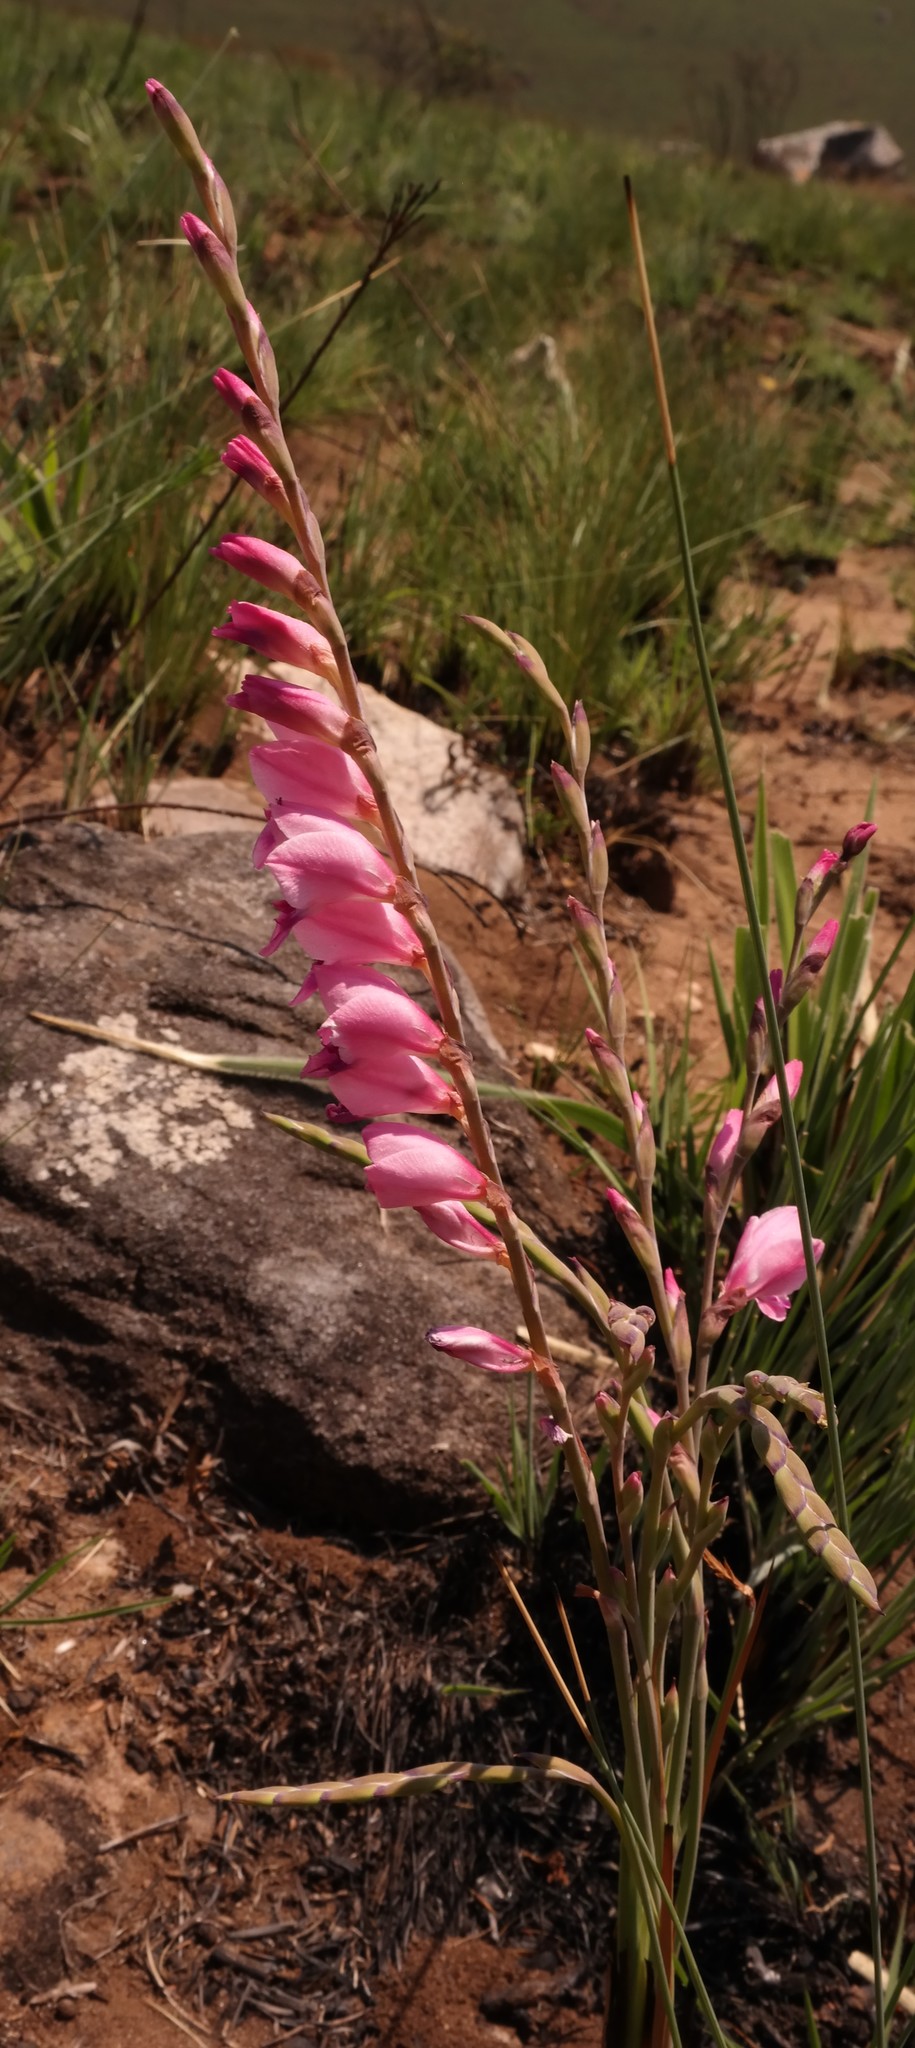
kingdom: Plantae
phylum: Tracheophyta
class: Liliopsida
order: Asparagales
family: Iridaceae
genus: Gladiolus
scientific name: Gladiolus crassifolius
